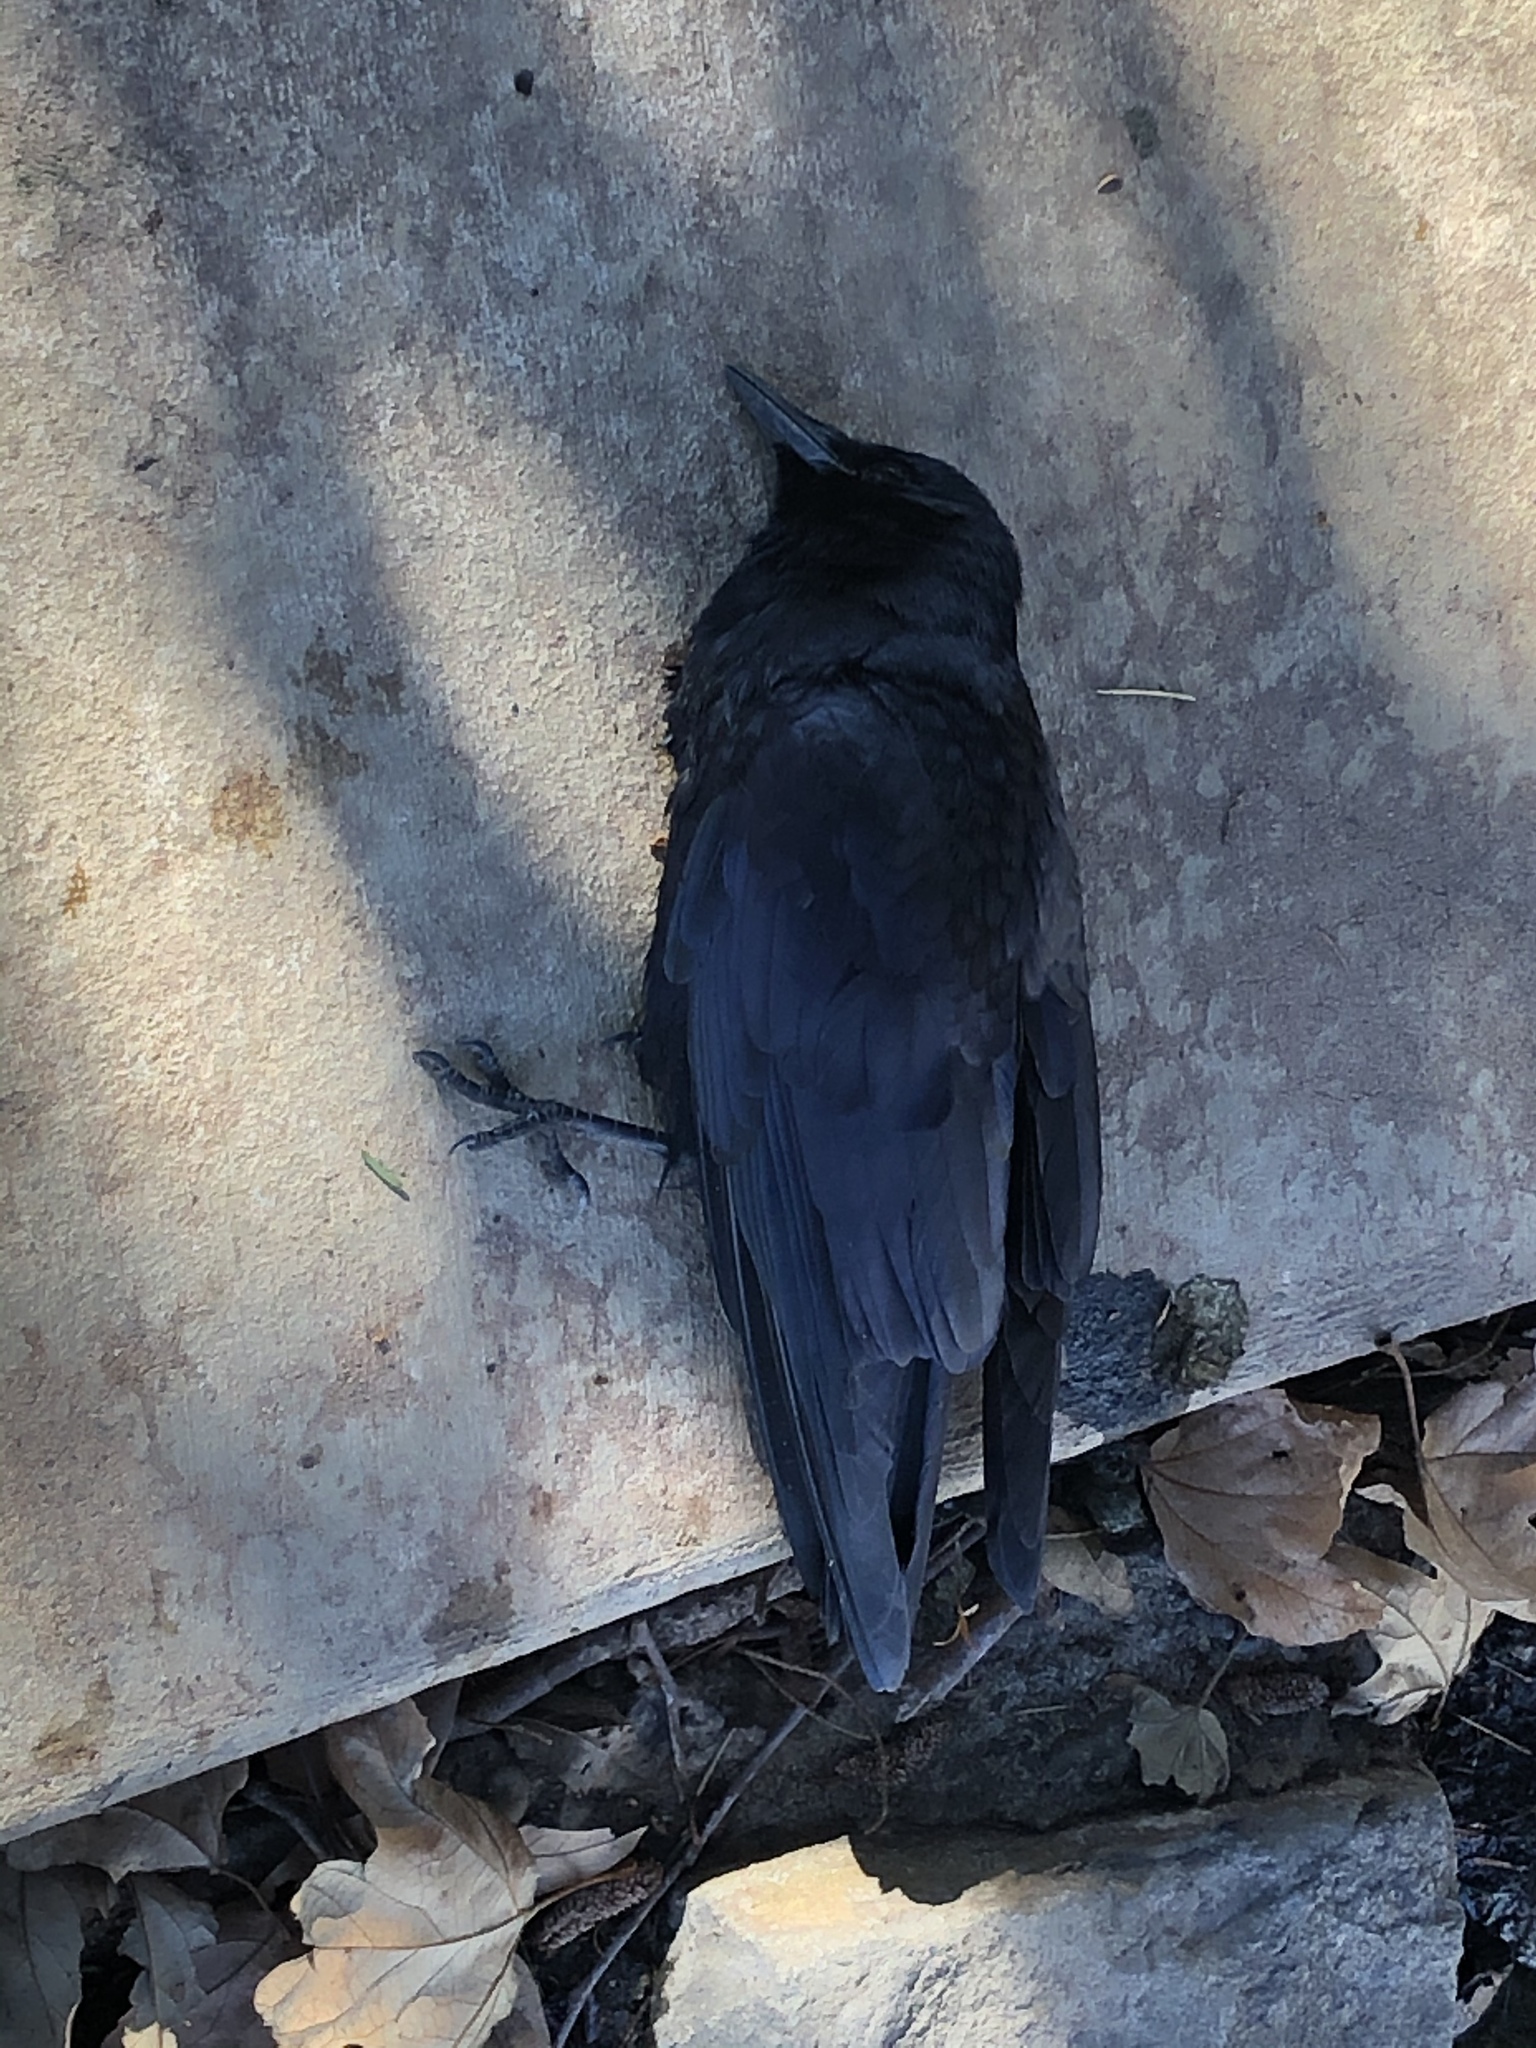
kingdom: Animalia
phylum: Chordata
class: Aves
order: Passeriformes
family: Corvidae
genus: Corvus
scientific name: Corvus brachyrhynchos
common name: American crow
